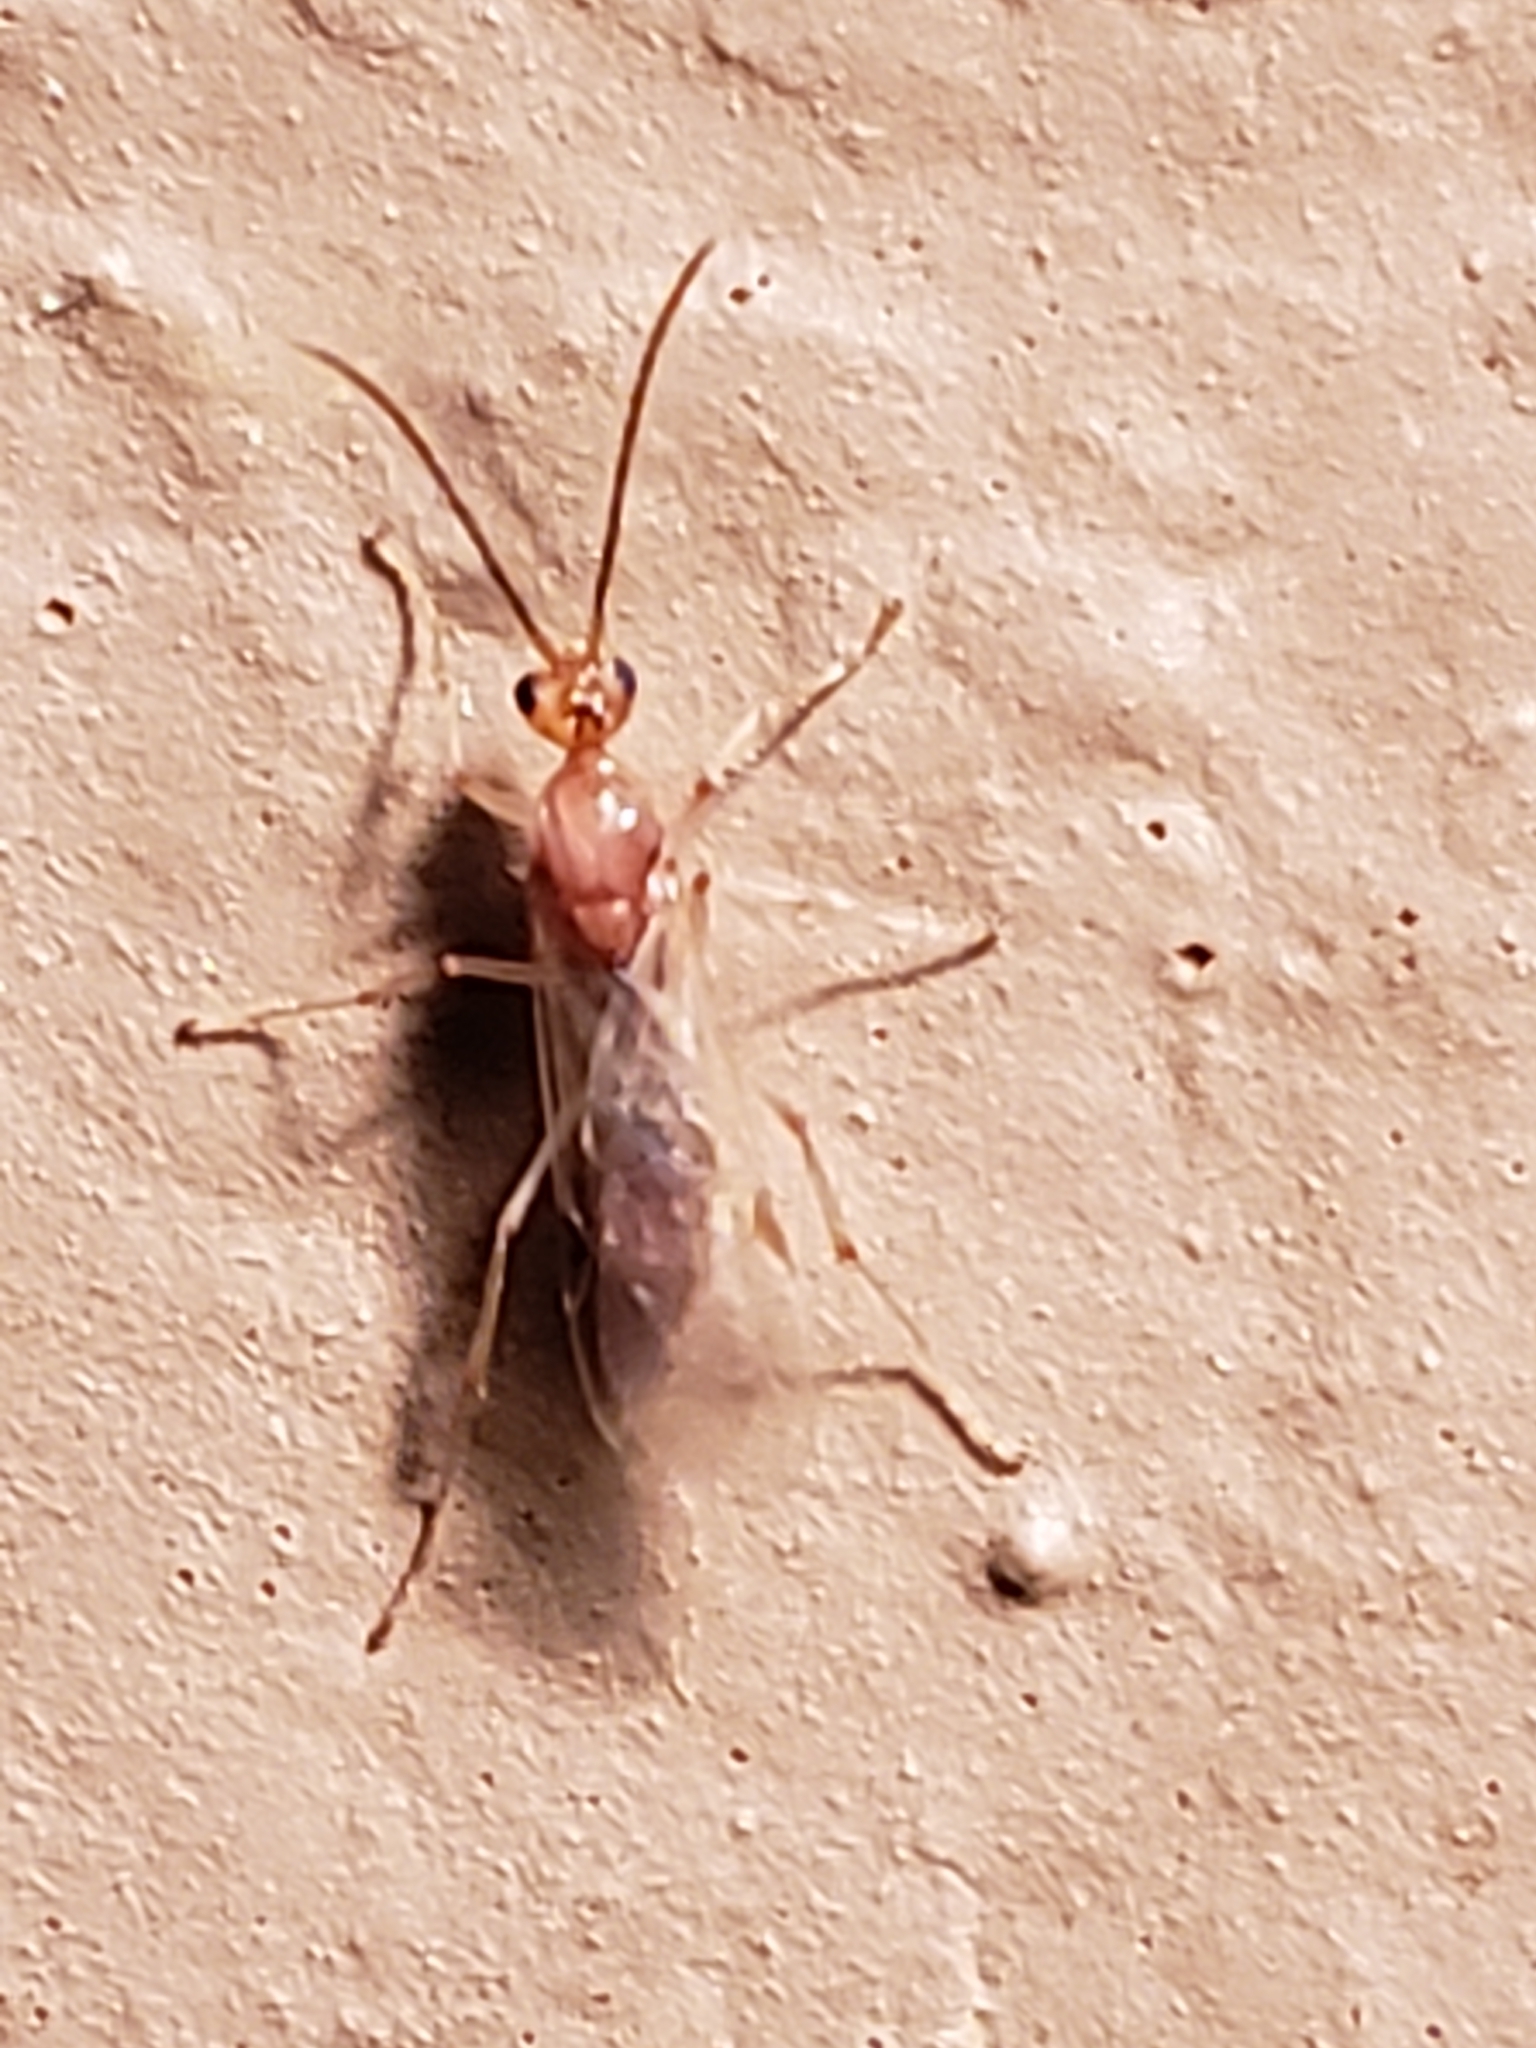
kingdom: Animalia
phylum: Arthropoda
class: Insecta
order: Hymenoptera
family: Formicidae
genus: Pachycondyla
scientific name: Pachycondyla chinensis
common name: Asian needle ant
